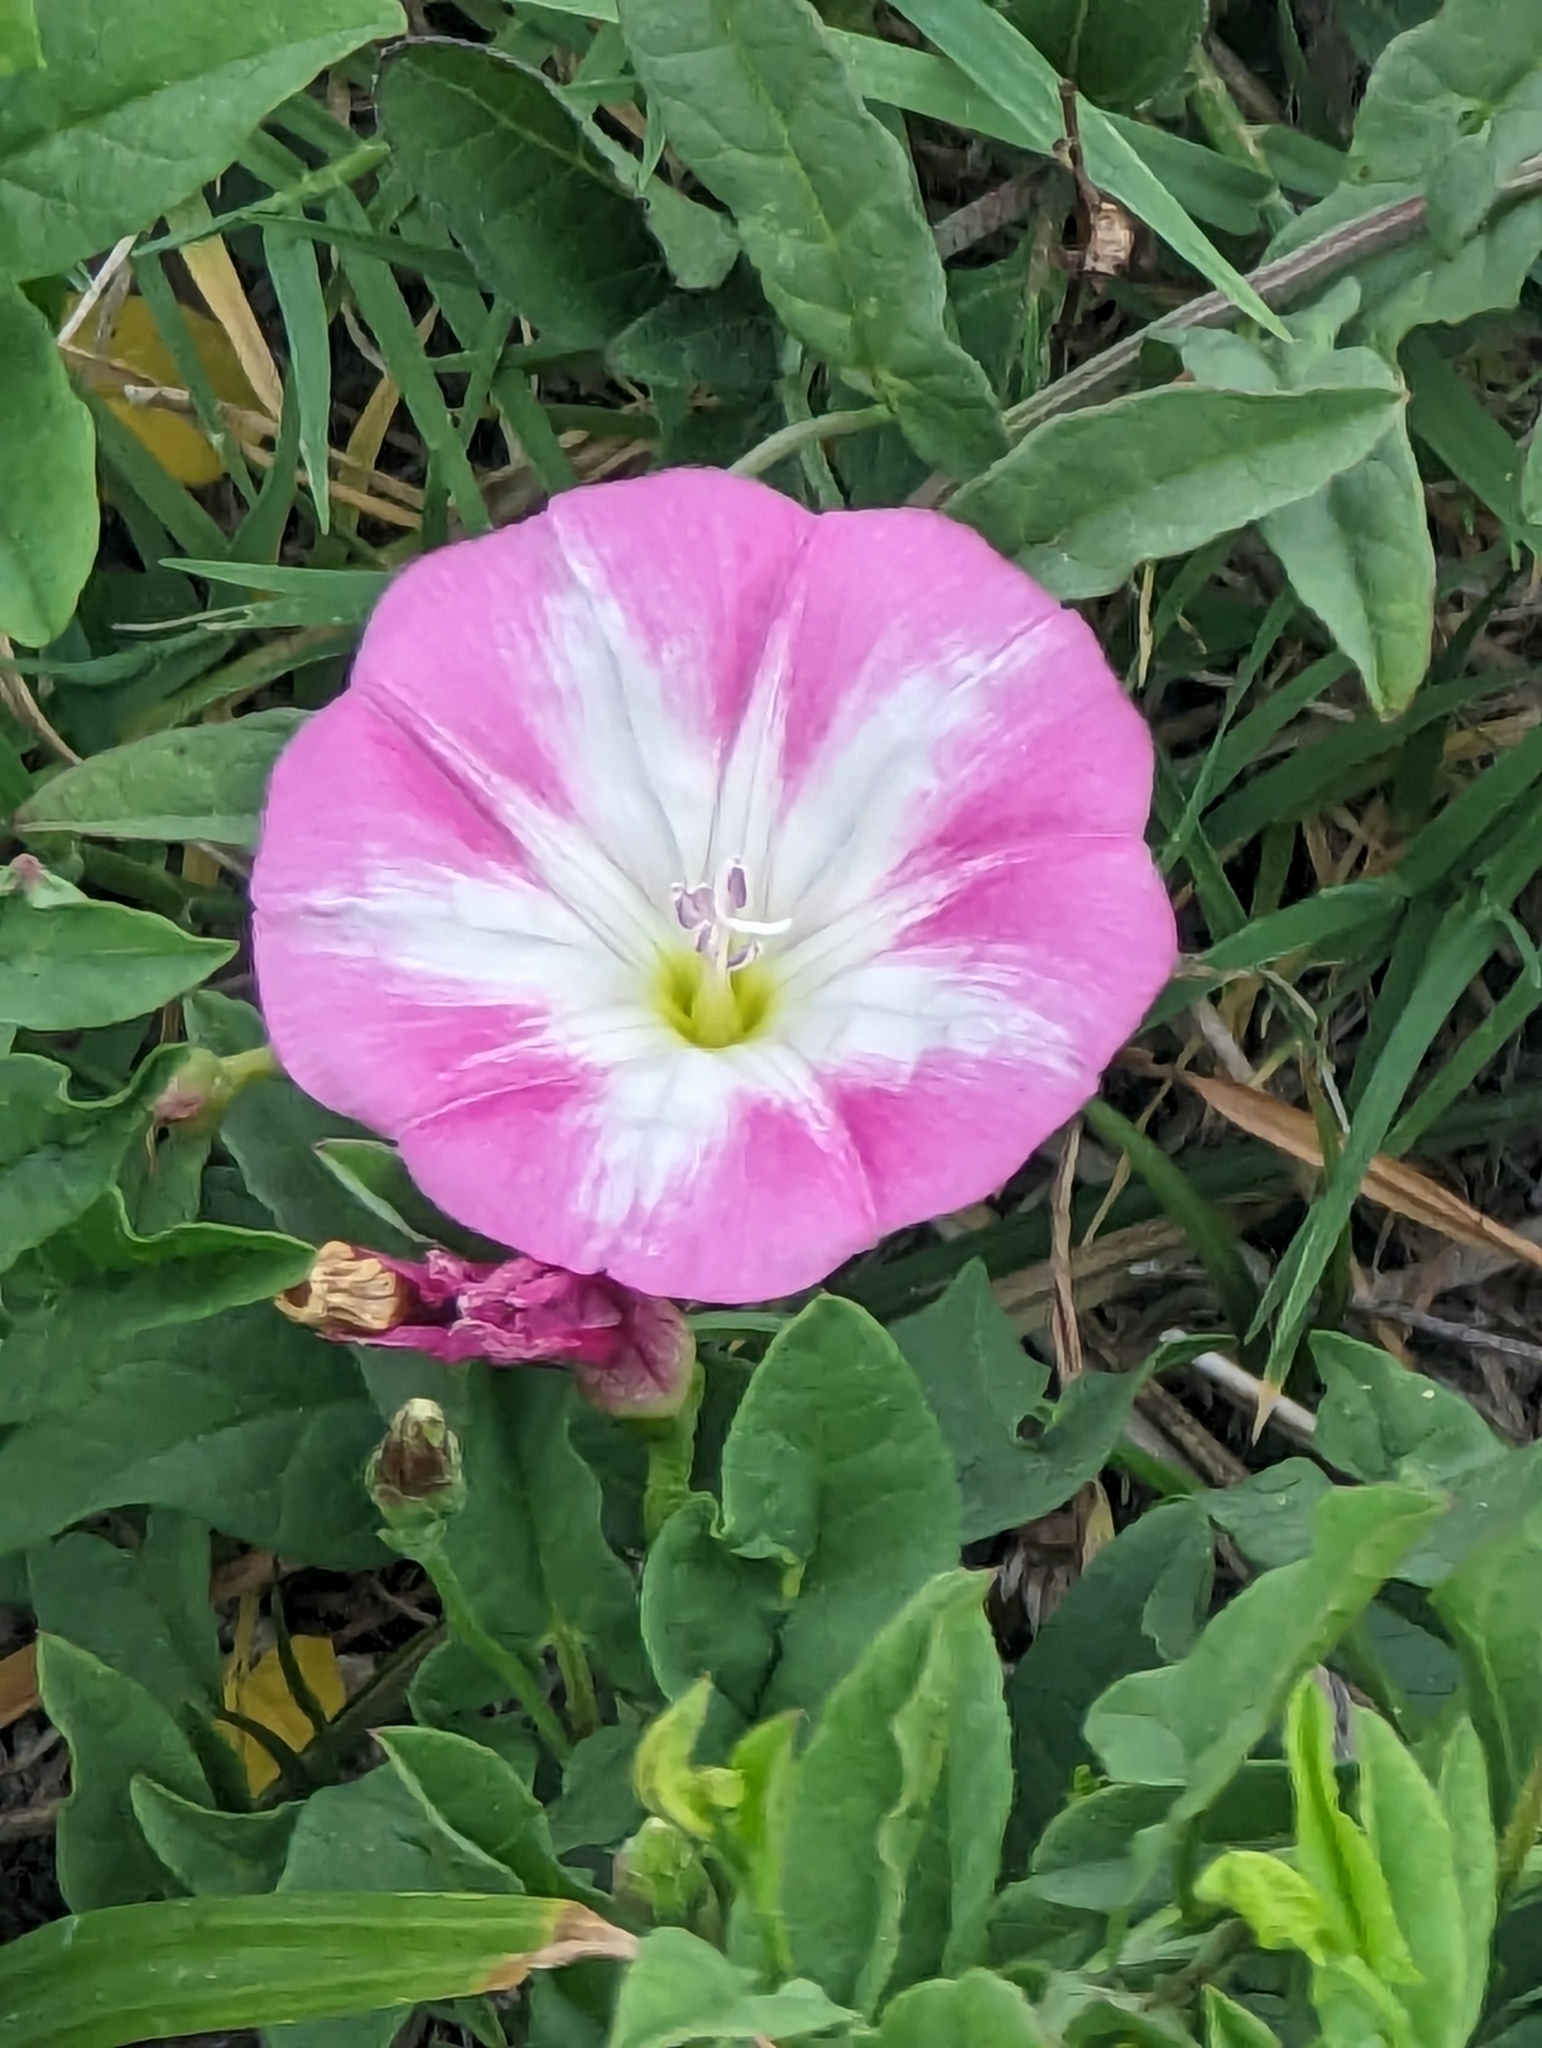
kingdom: Plantae
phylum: Tracheophyta
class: Magnoliopsida
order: Solanales
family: Convolvulaceae
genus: Convolvulus
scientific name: Convolvulus arvensis
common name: Field bindweed
